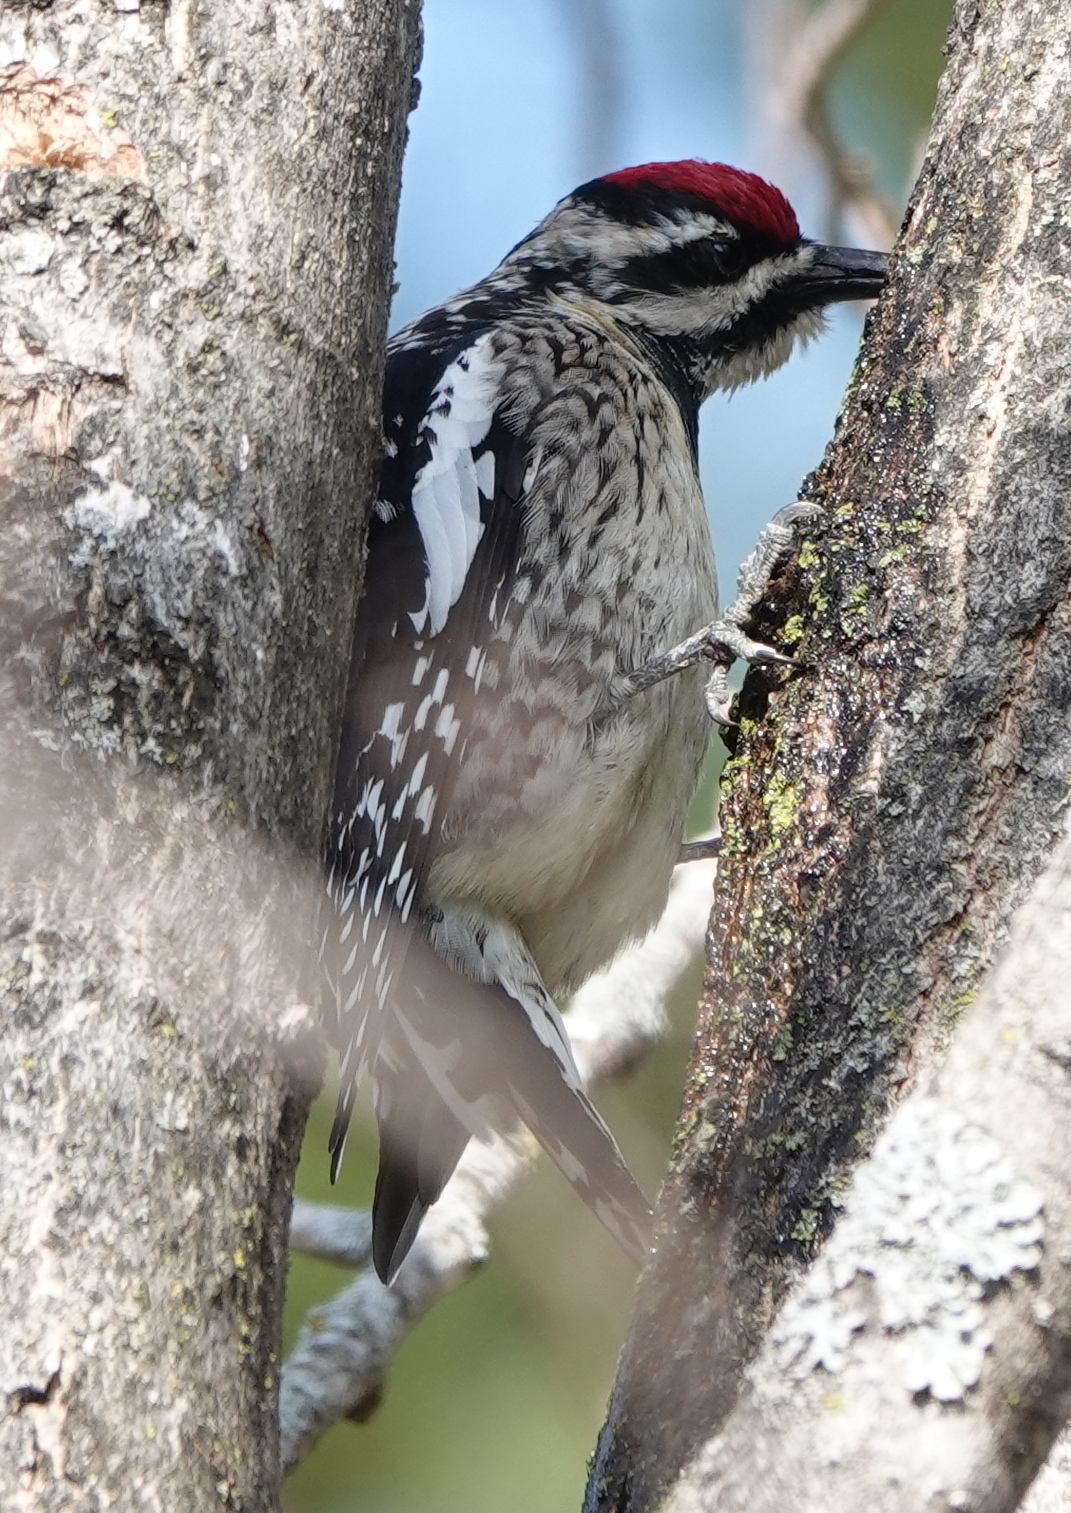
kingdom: Animalia
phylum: Chordata
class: Aves
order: Piciformes
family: Picidae
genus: Sphyrapicus
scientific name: Sphyrapicus varius
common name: Yellow-bellied sapsucker
